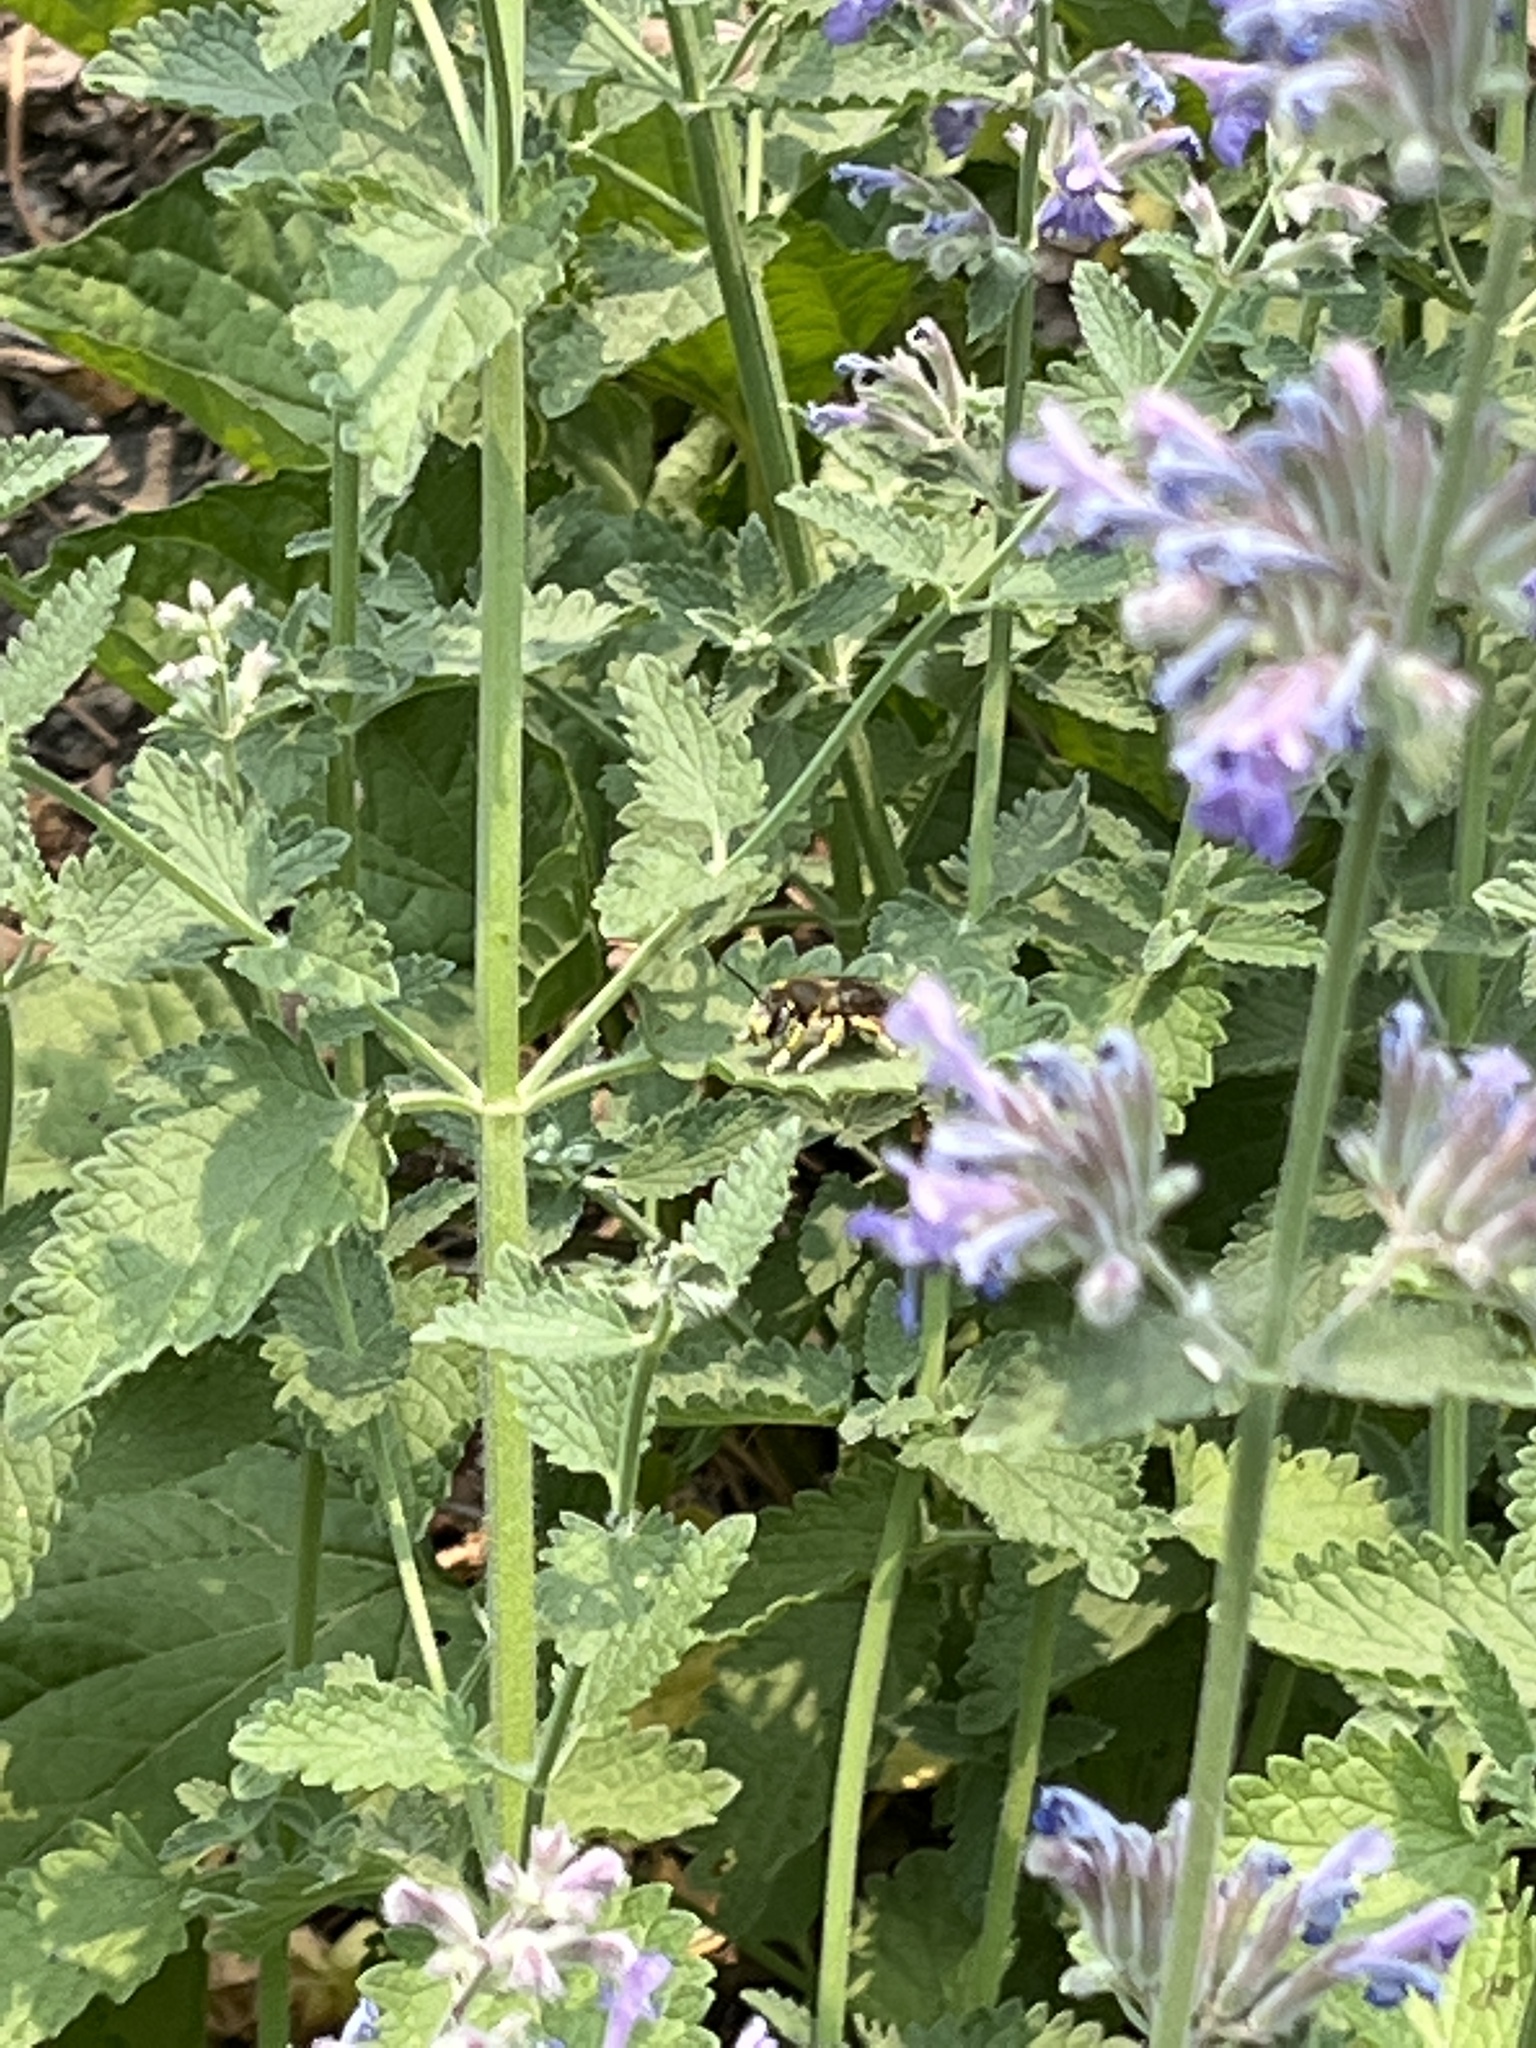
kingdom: Animalia
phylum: Arthropoda
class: Insecta
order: Hymenoptera
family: Megachilidae
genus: Anthidium
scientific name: Anthidium manicatum
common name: Wool carder bee
